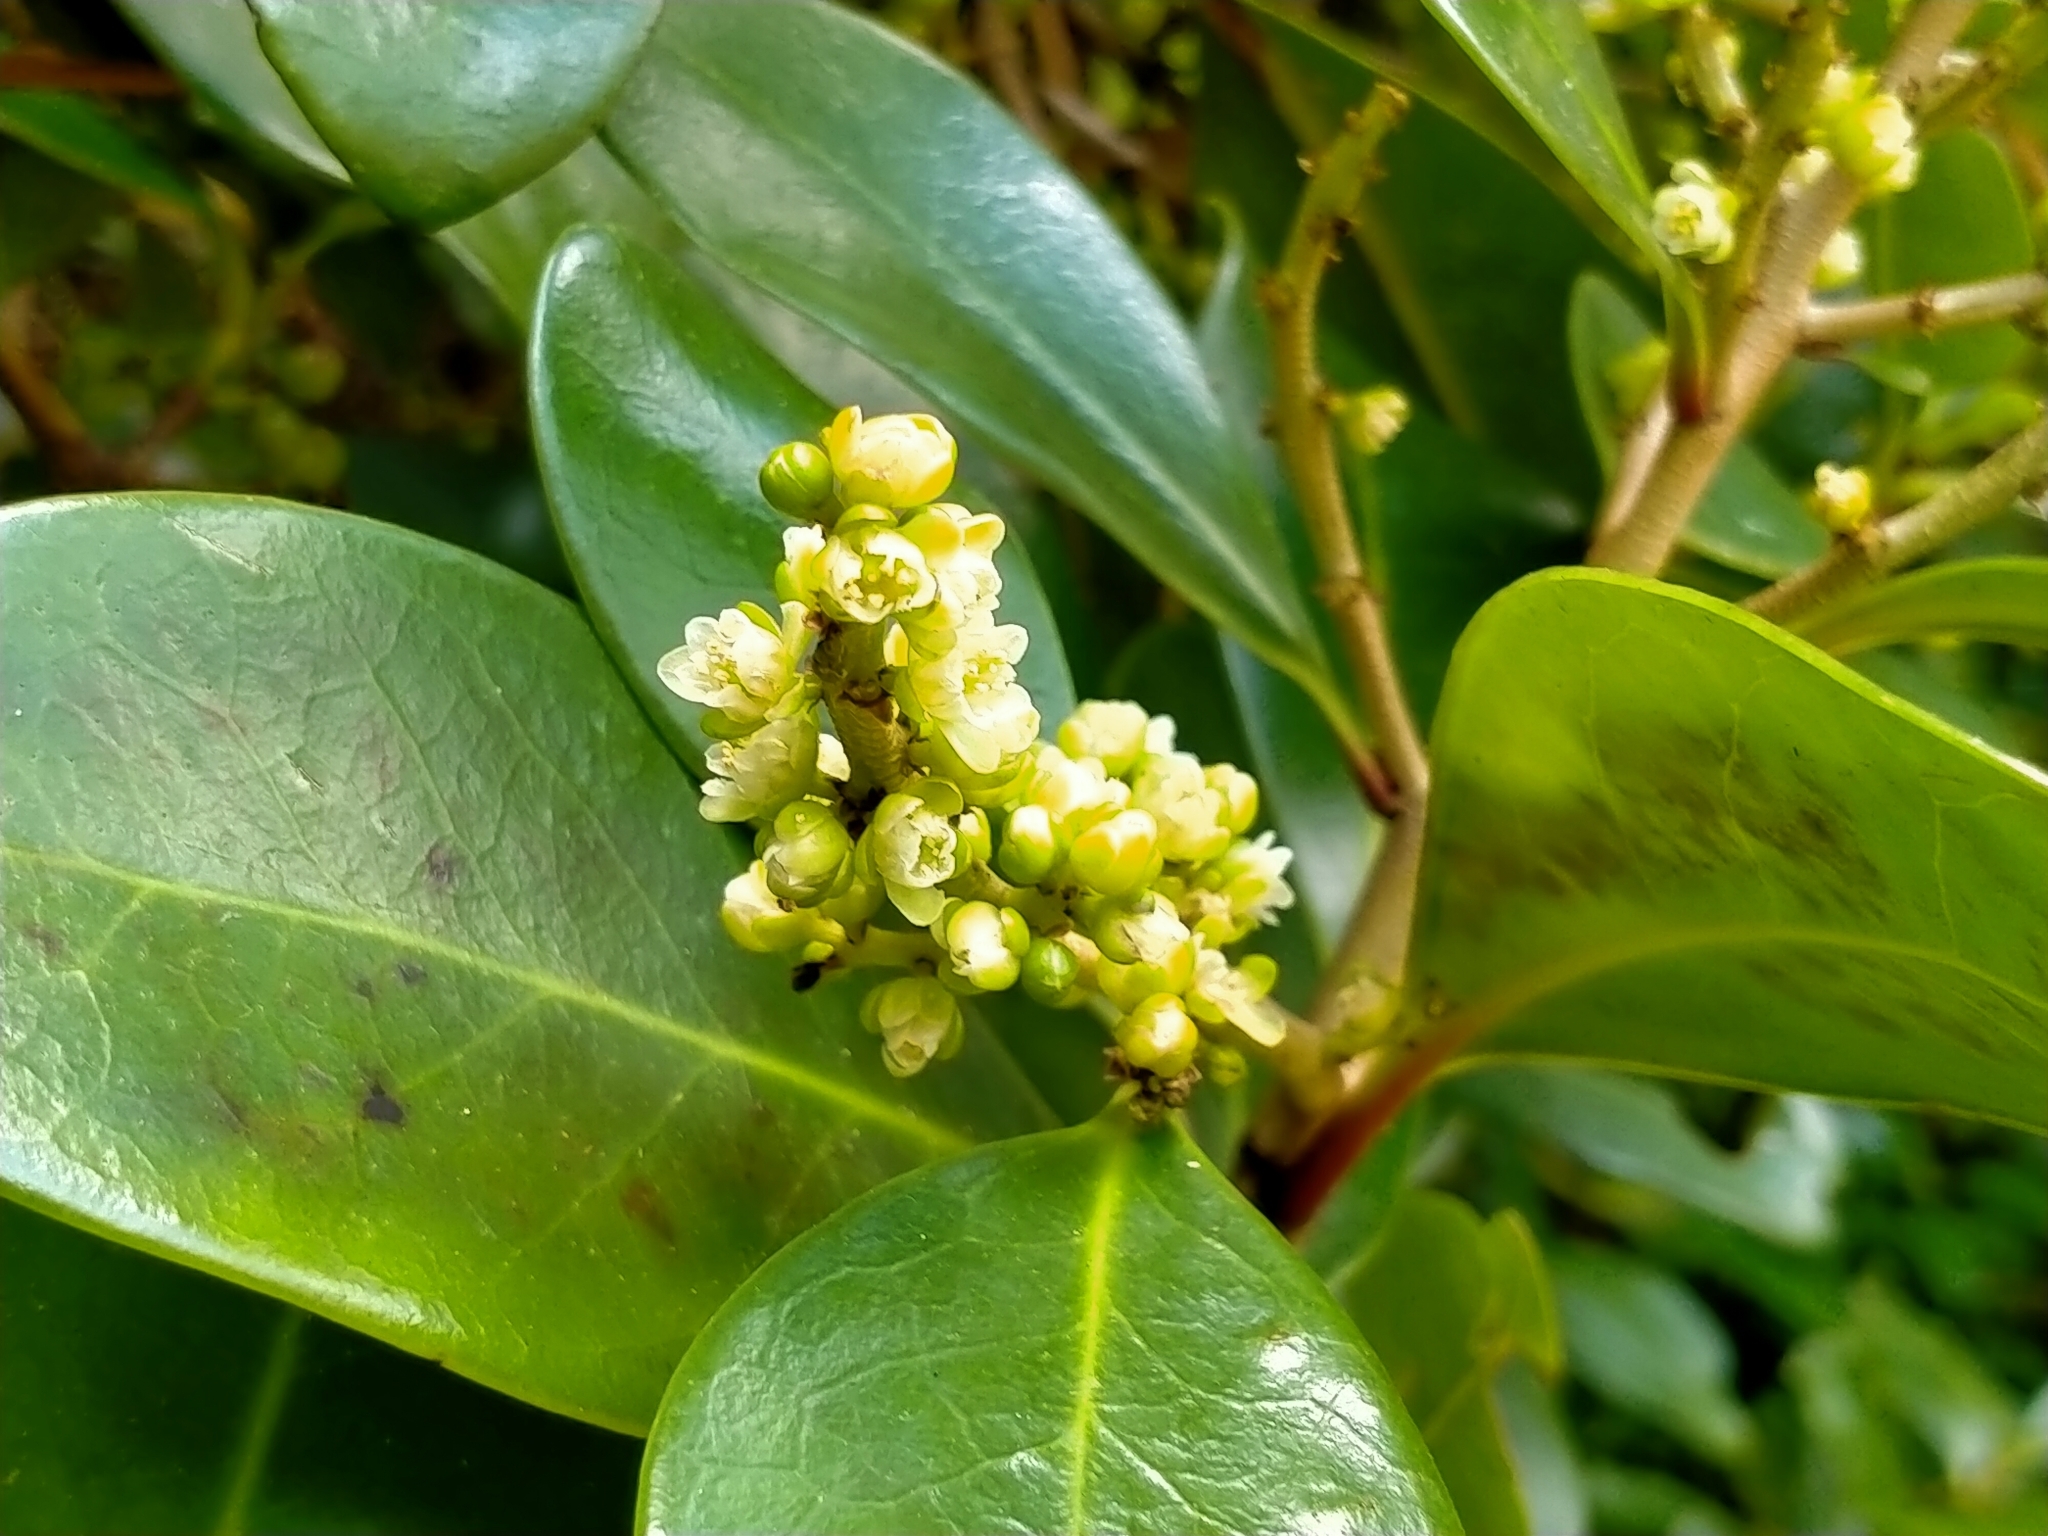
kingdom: Plantae
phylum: Tracheophyta
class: Magnoliopsida
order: Cucurbitales
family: Corynocarpaceae
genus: Corynocarpus
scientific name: Corynocarpus laevigatus
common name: New zealand laurel
